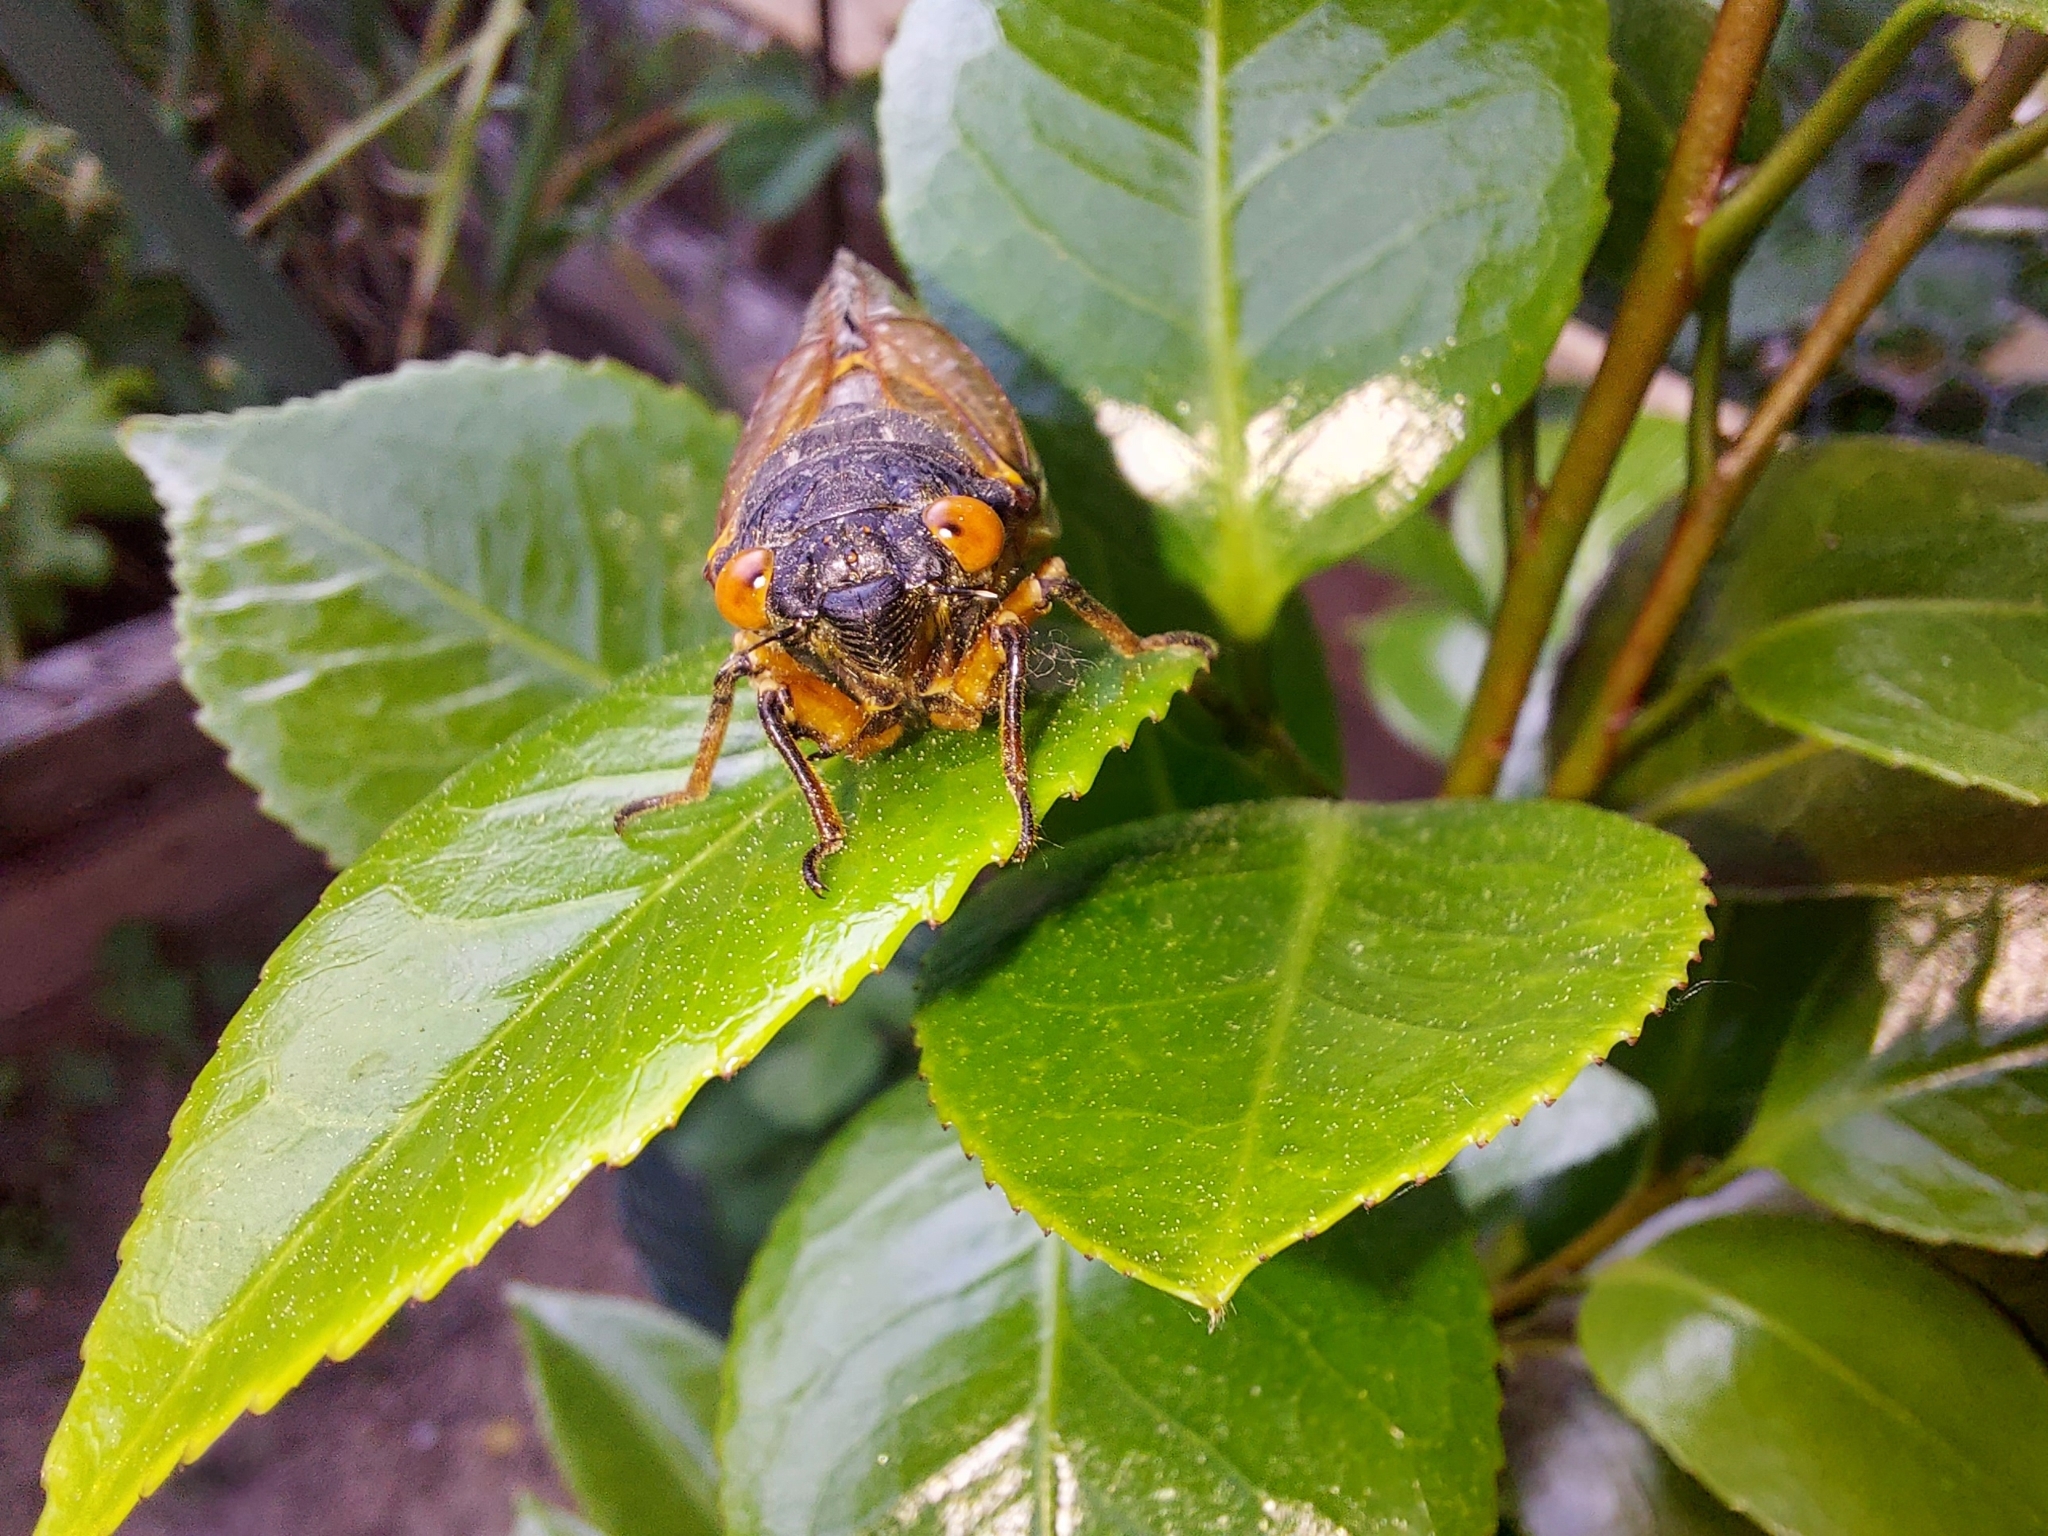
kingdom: Animalia
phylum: Arthropoda
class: Insecta
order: Hemiptera
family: Cicadidae
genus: Magicicada
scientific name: Magicicada septendecim
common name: Periodical cicada
